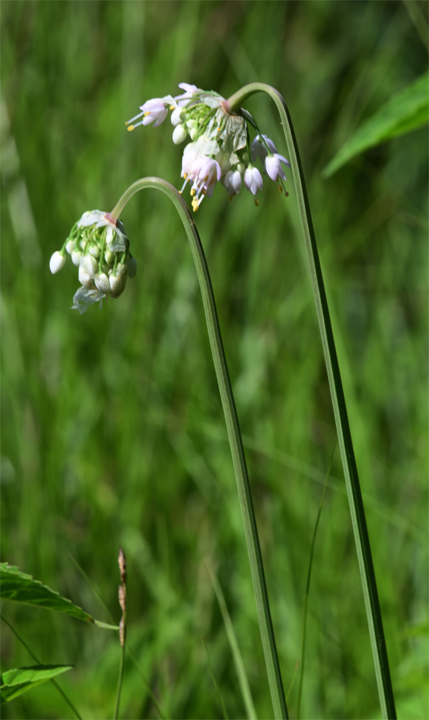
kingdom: Plantae
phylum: Tracheophyta
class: Liliopsida
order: Asparagales
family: Amaryllidaceae
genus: Allium
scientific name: Allium cernuum
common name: Nodding onion
